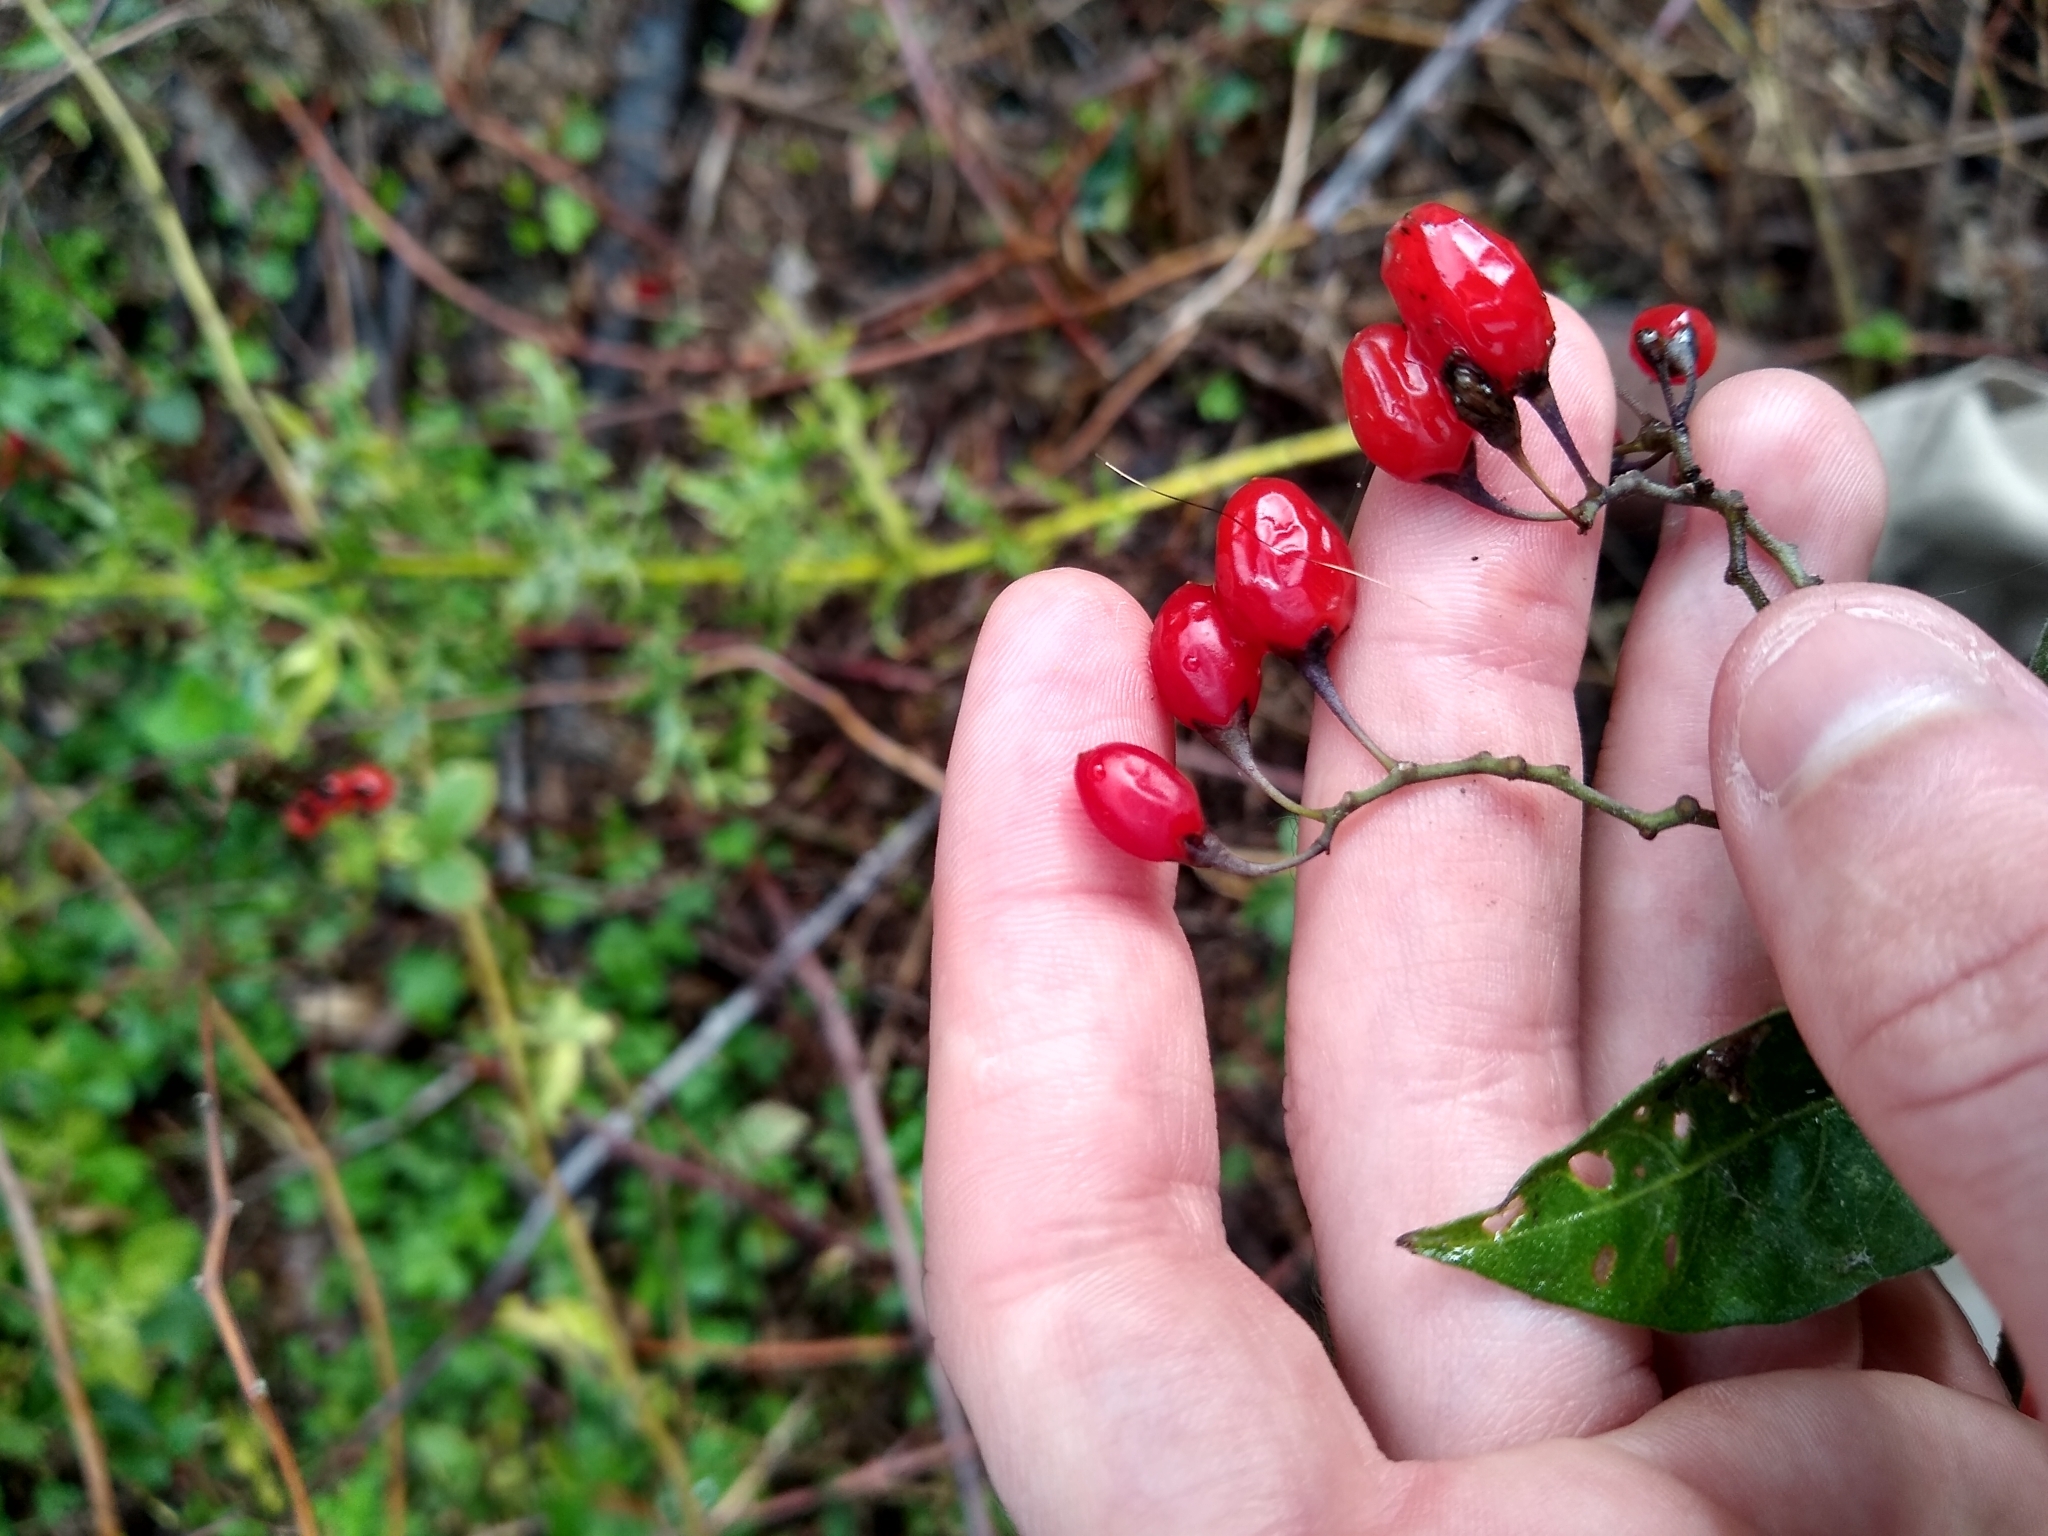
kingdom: Plantae
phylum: Tracheophyta
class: Magnoliopsida
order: Solanales
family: Solanaceae
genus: Solanum
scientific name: Solanum dulcamara
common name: Climbing nightshade
